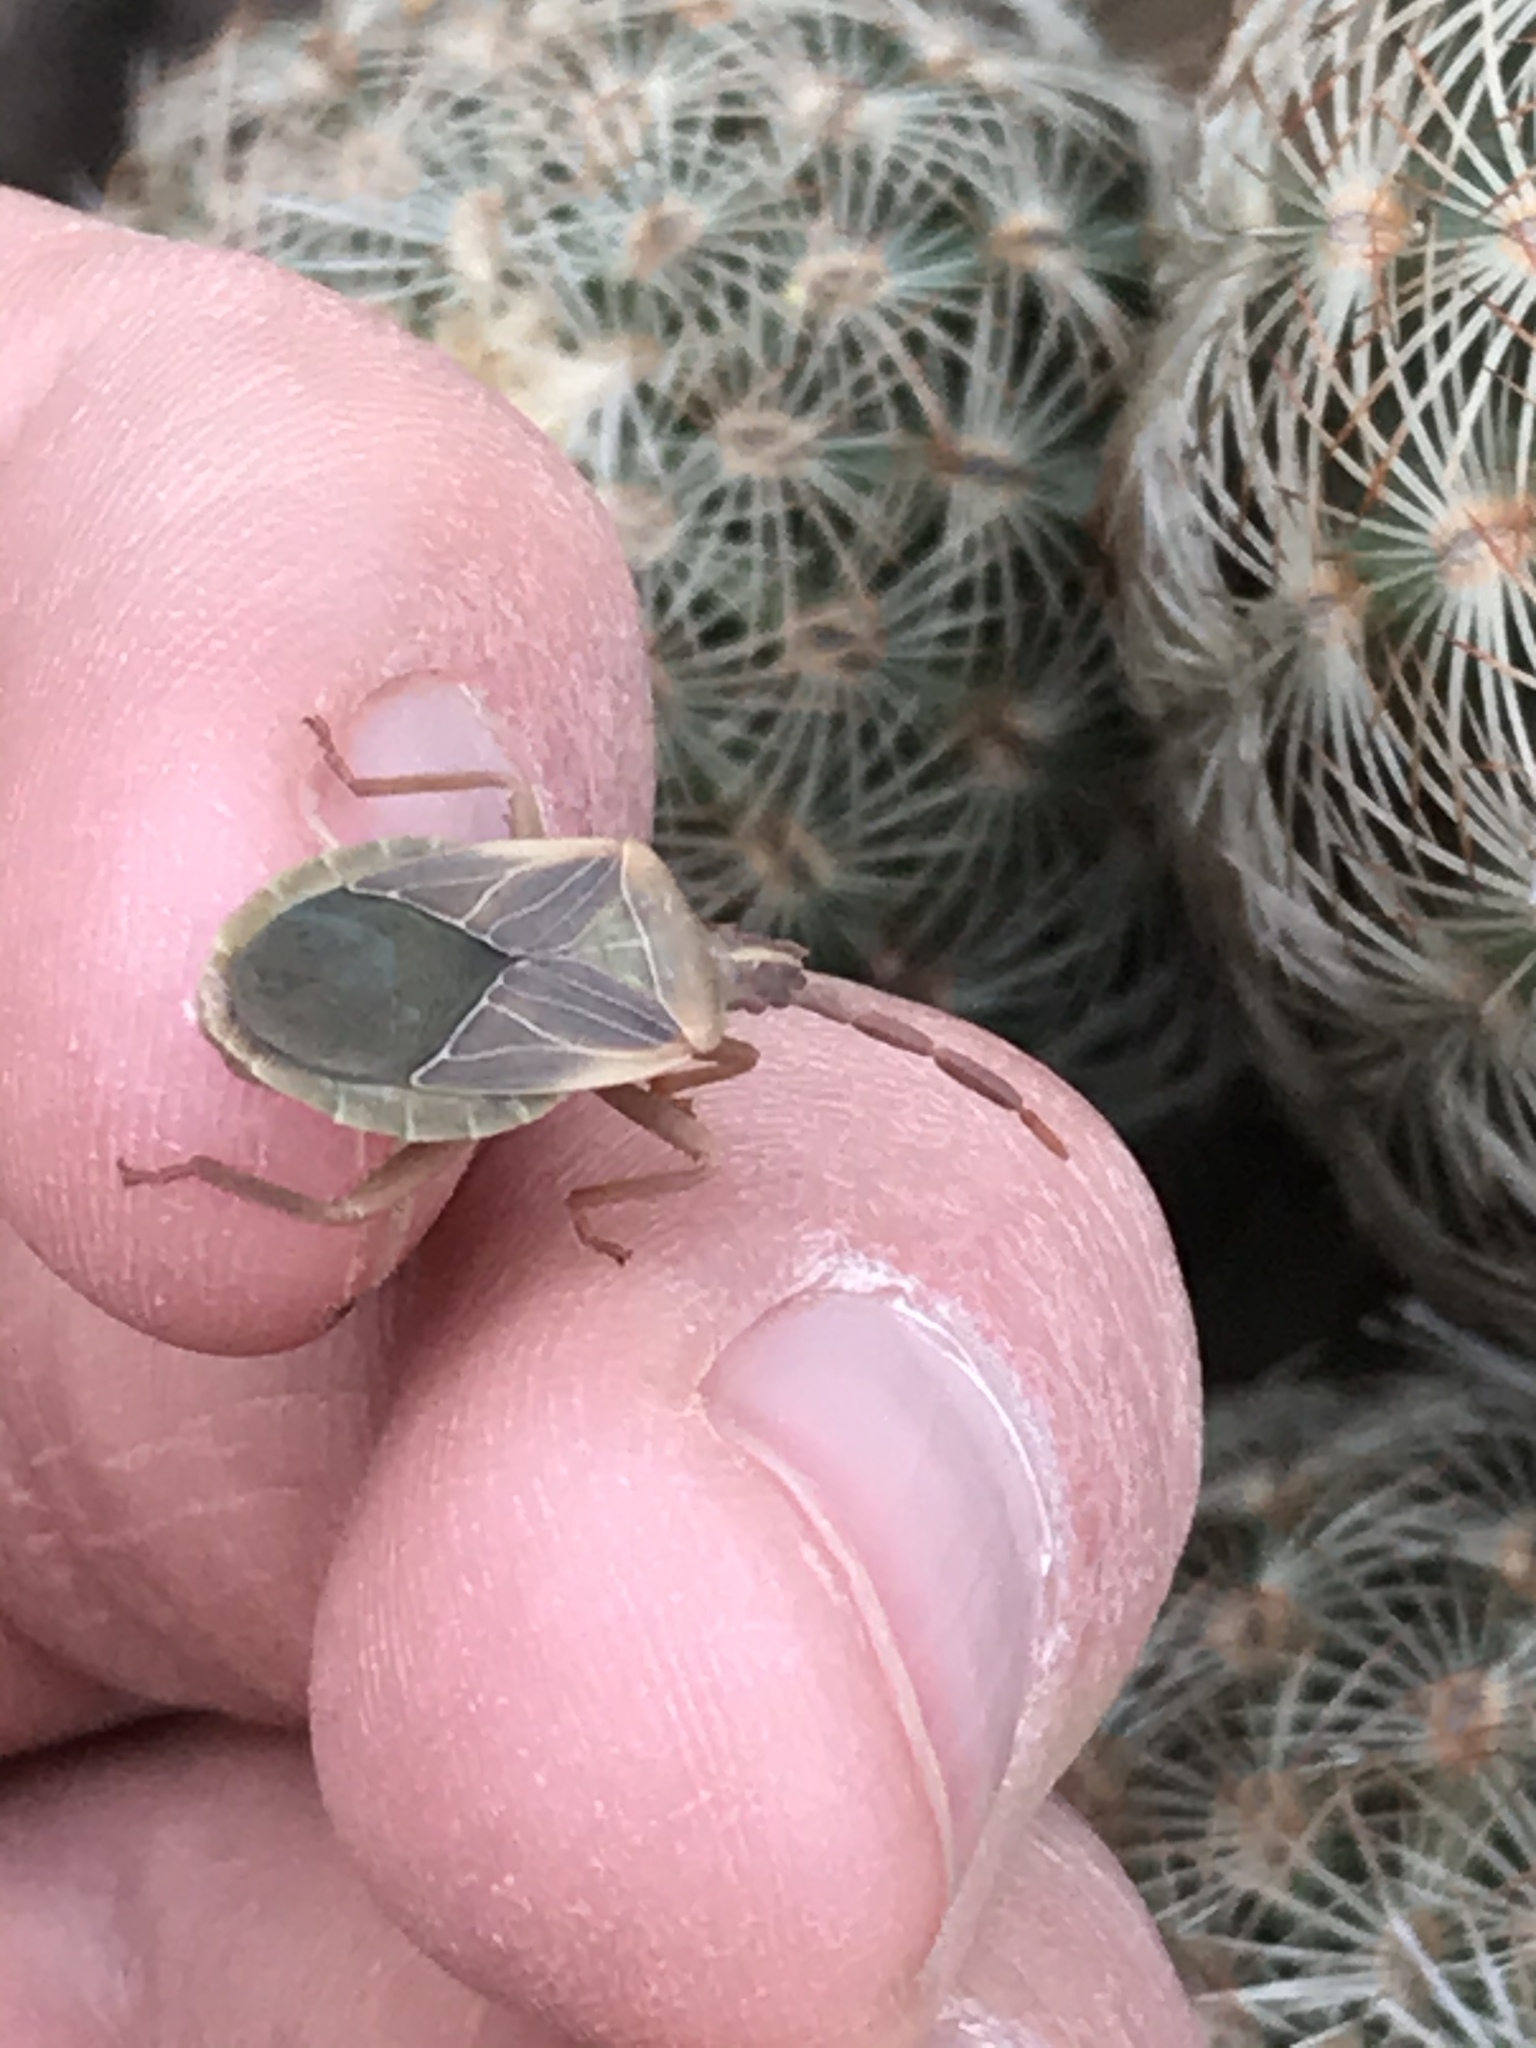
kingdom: Animalia
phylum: Arthropoda
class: Insecta
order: Hemiptera
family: Coreidae
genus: Chelinidea
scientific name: Chelinidea vittiger
